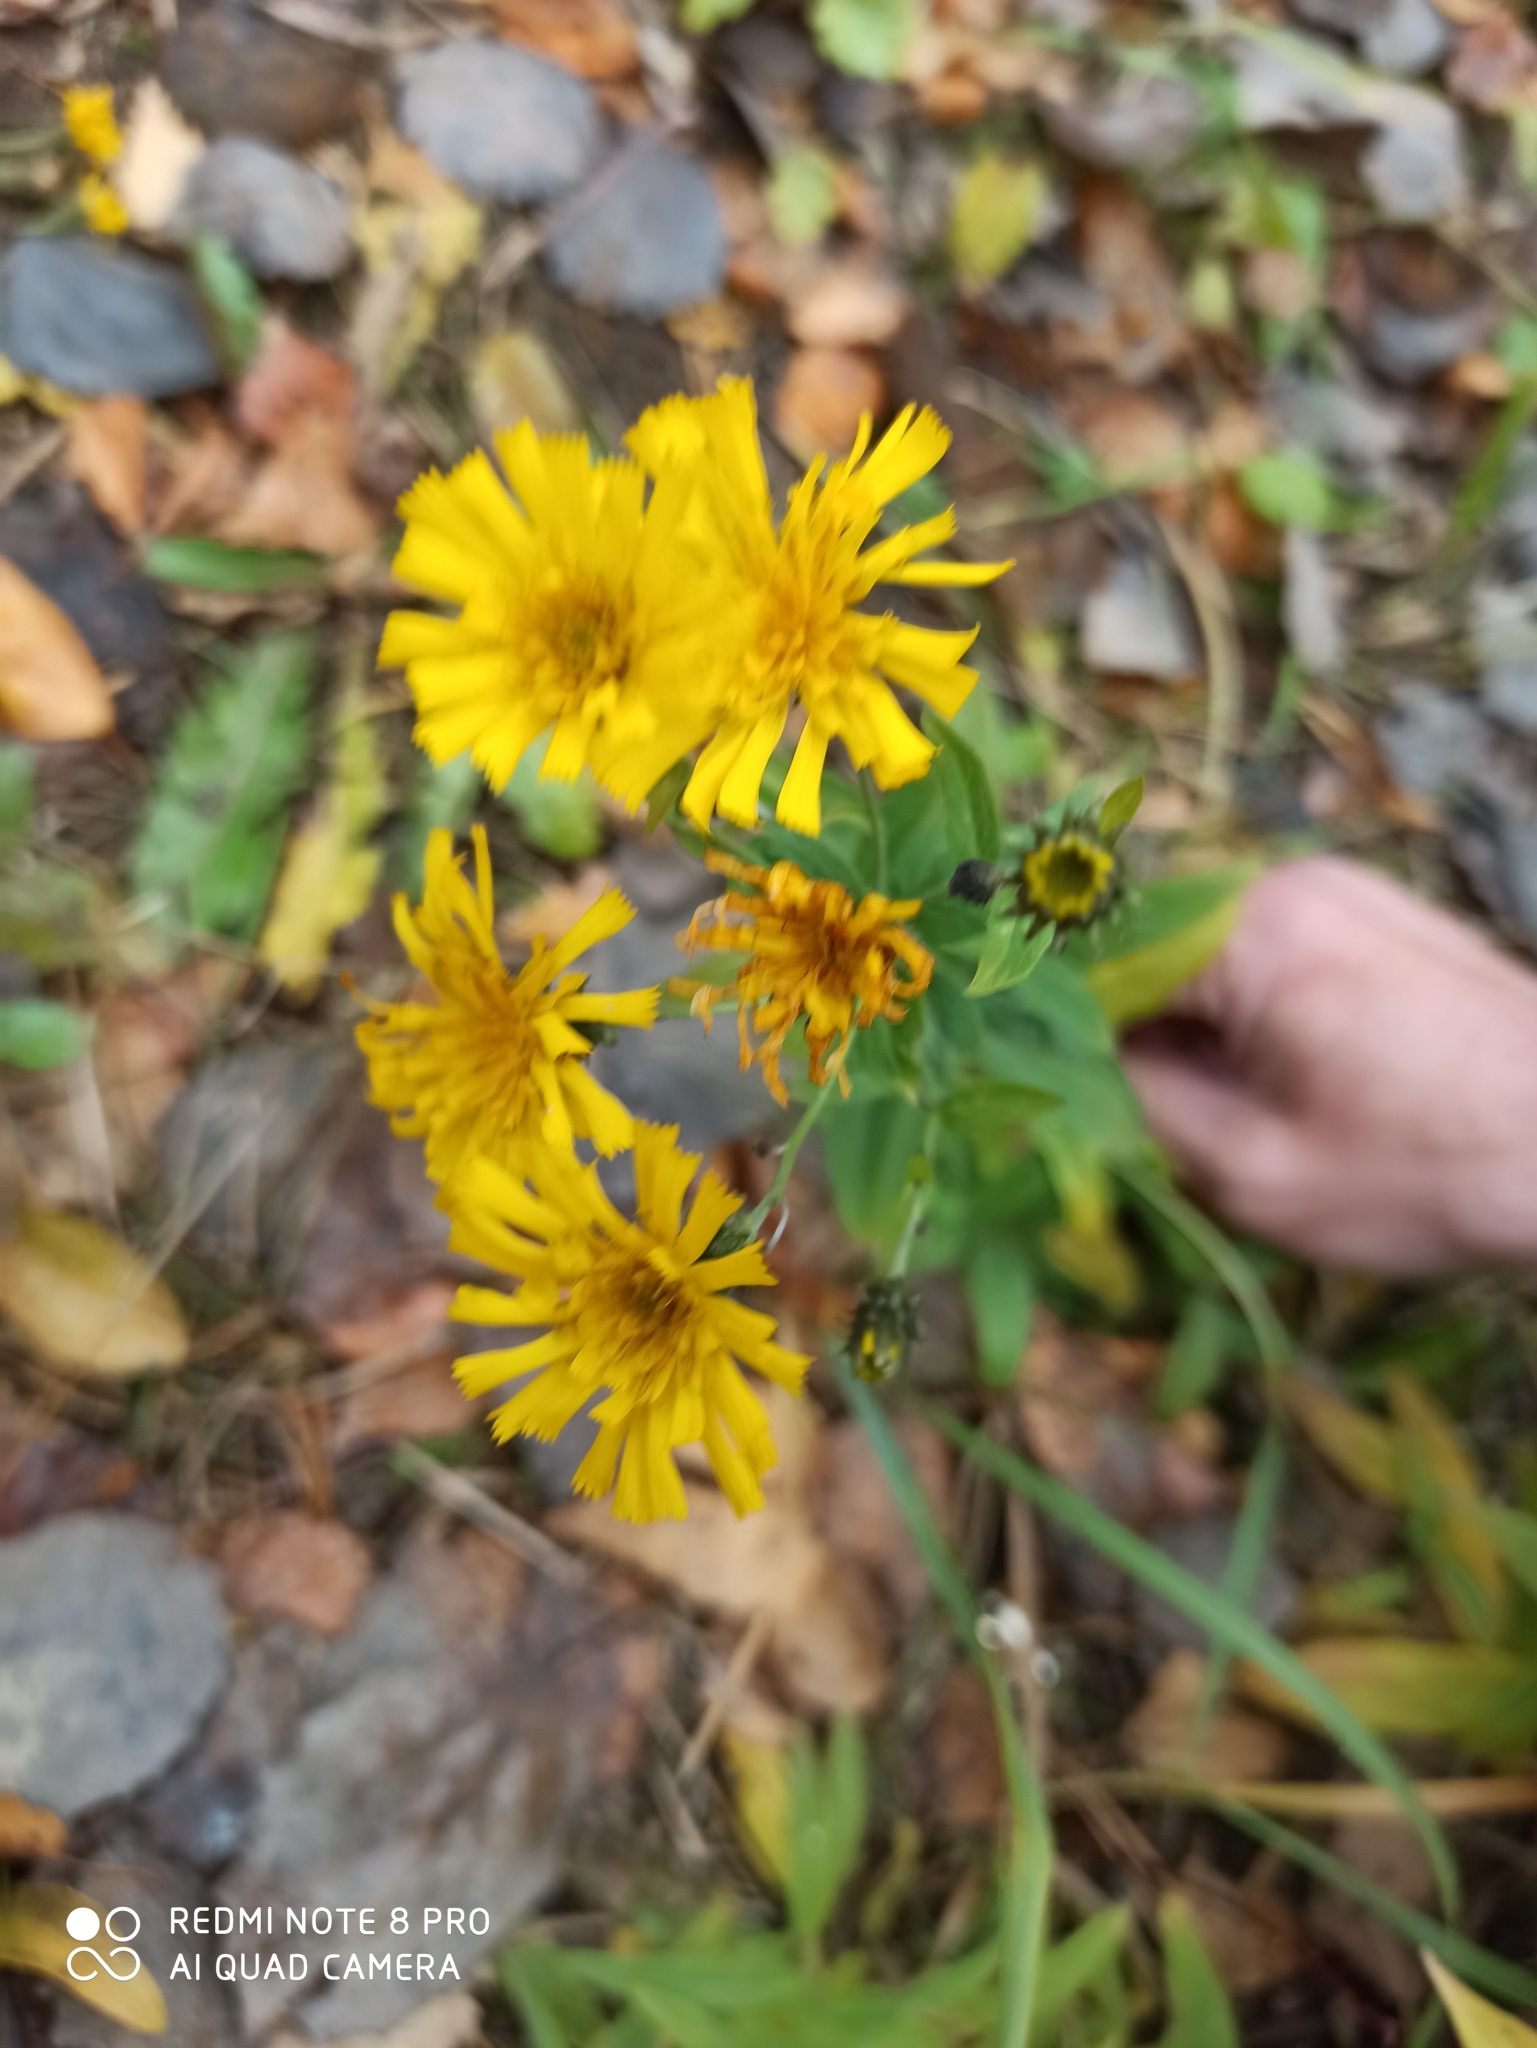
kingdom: Plantae
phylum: Tracheophyta
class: Magnoliopsida
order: Asterales
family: Asteraceae
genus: Hieracium
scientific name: Hieracium umbellatum
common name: Northern hawkweed
